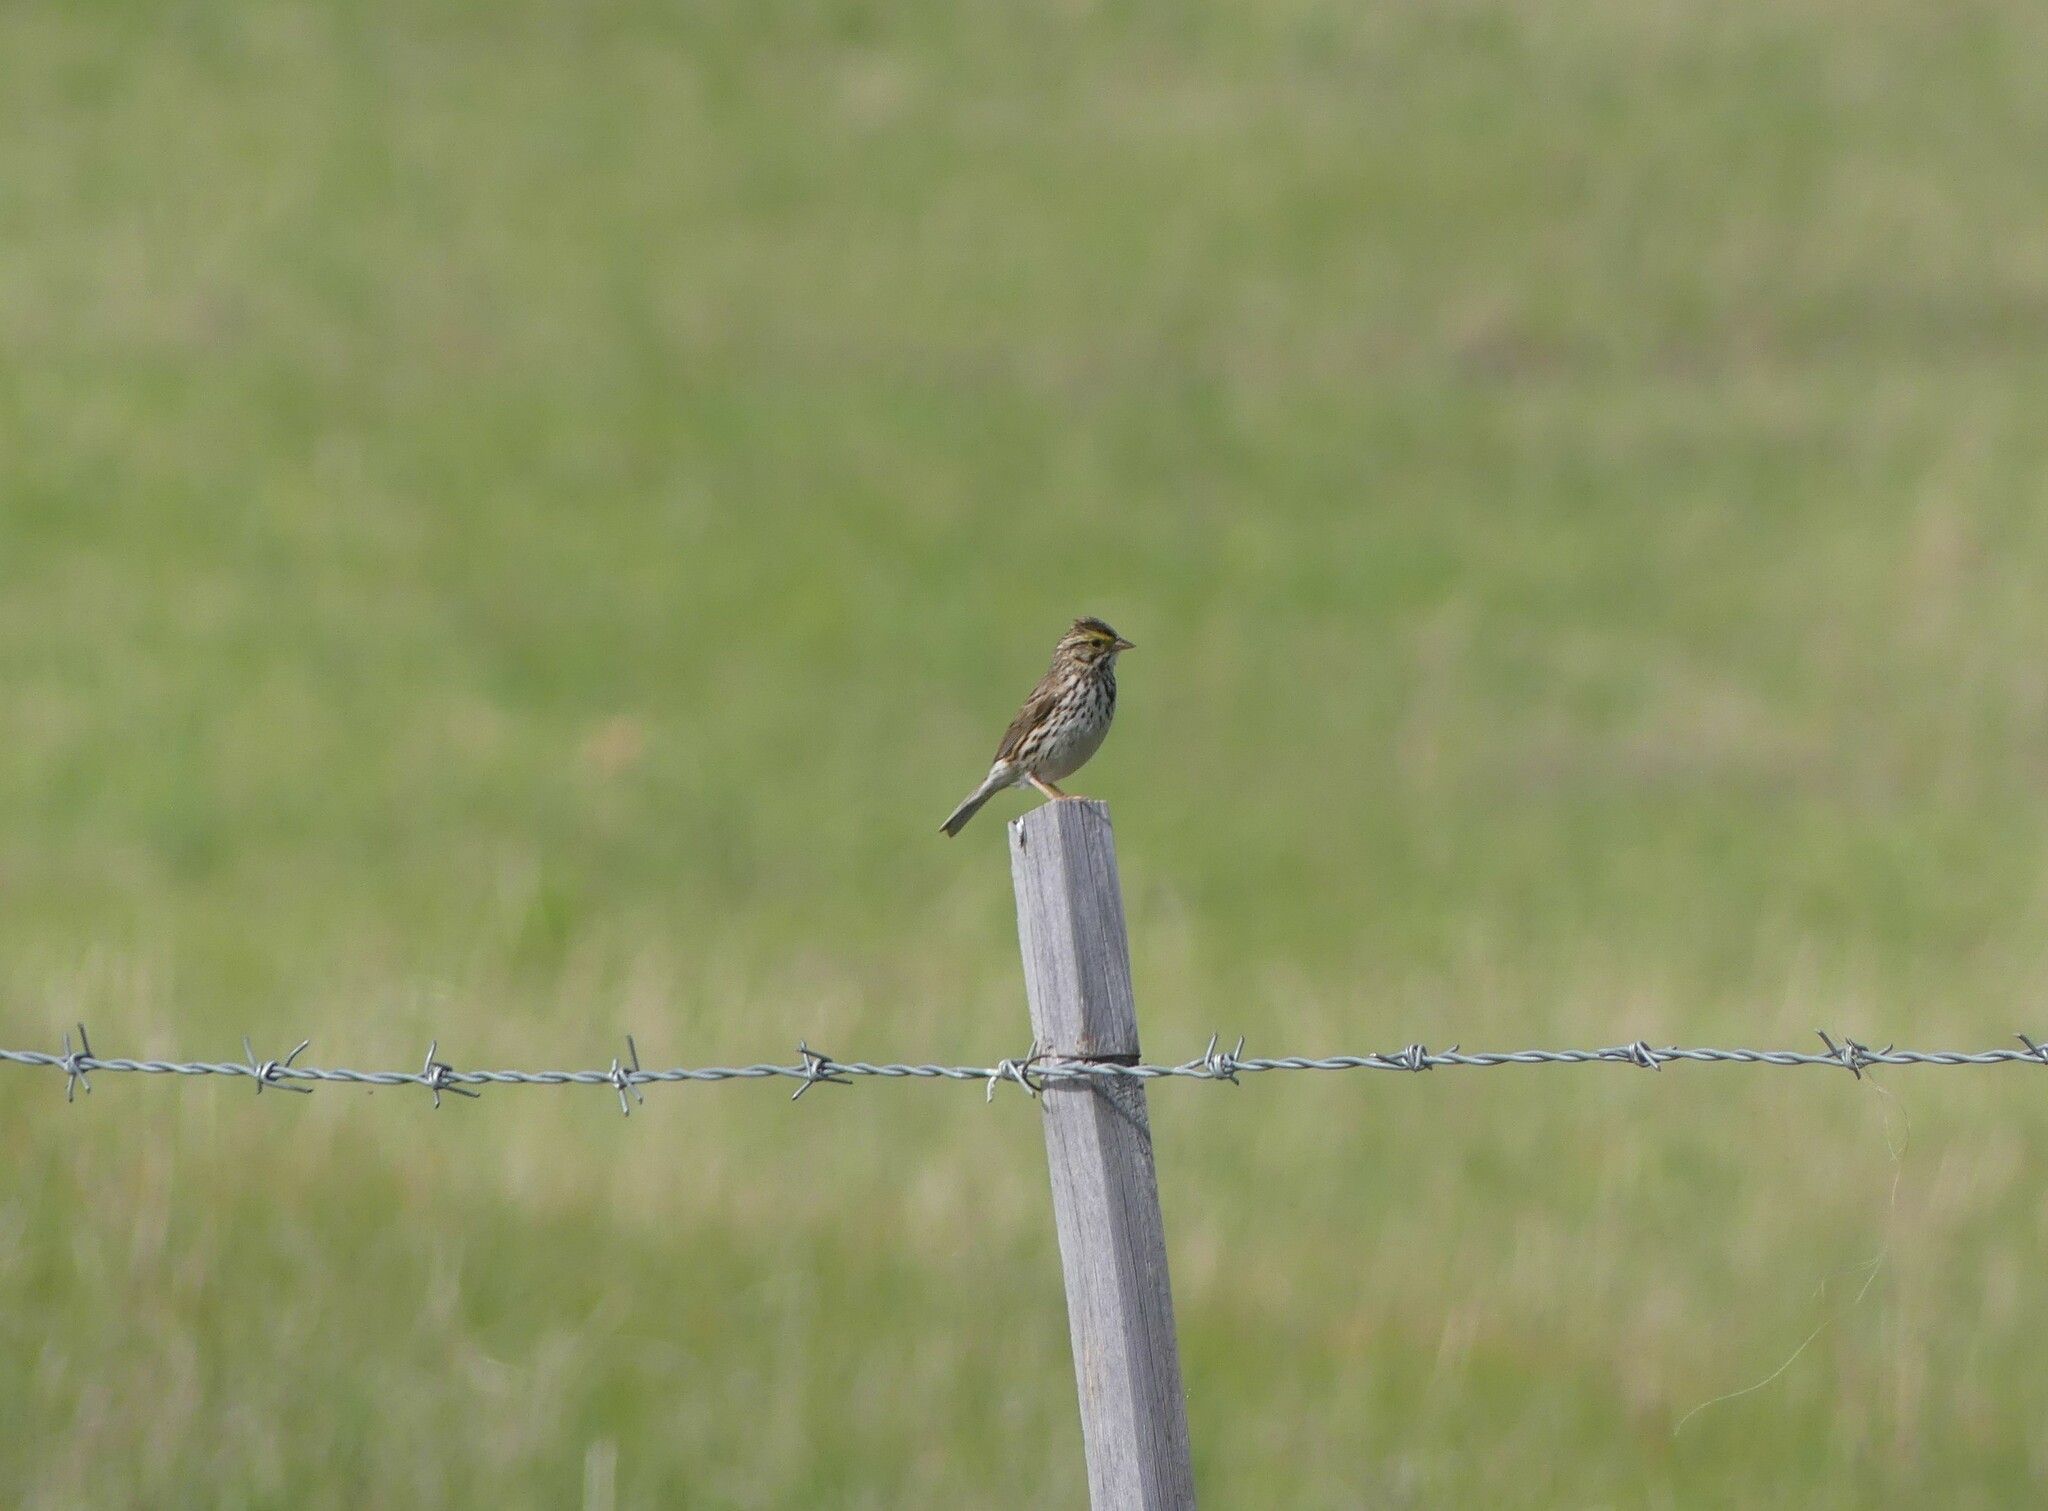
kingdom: Animalia
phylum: Chordata
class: Aves
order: Passeriformes
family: Passerellidae
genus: Passerculus
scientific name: Passerculus sandwichensis
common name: Savannah sparrow
